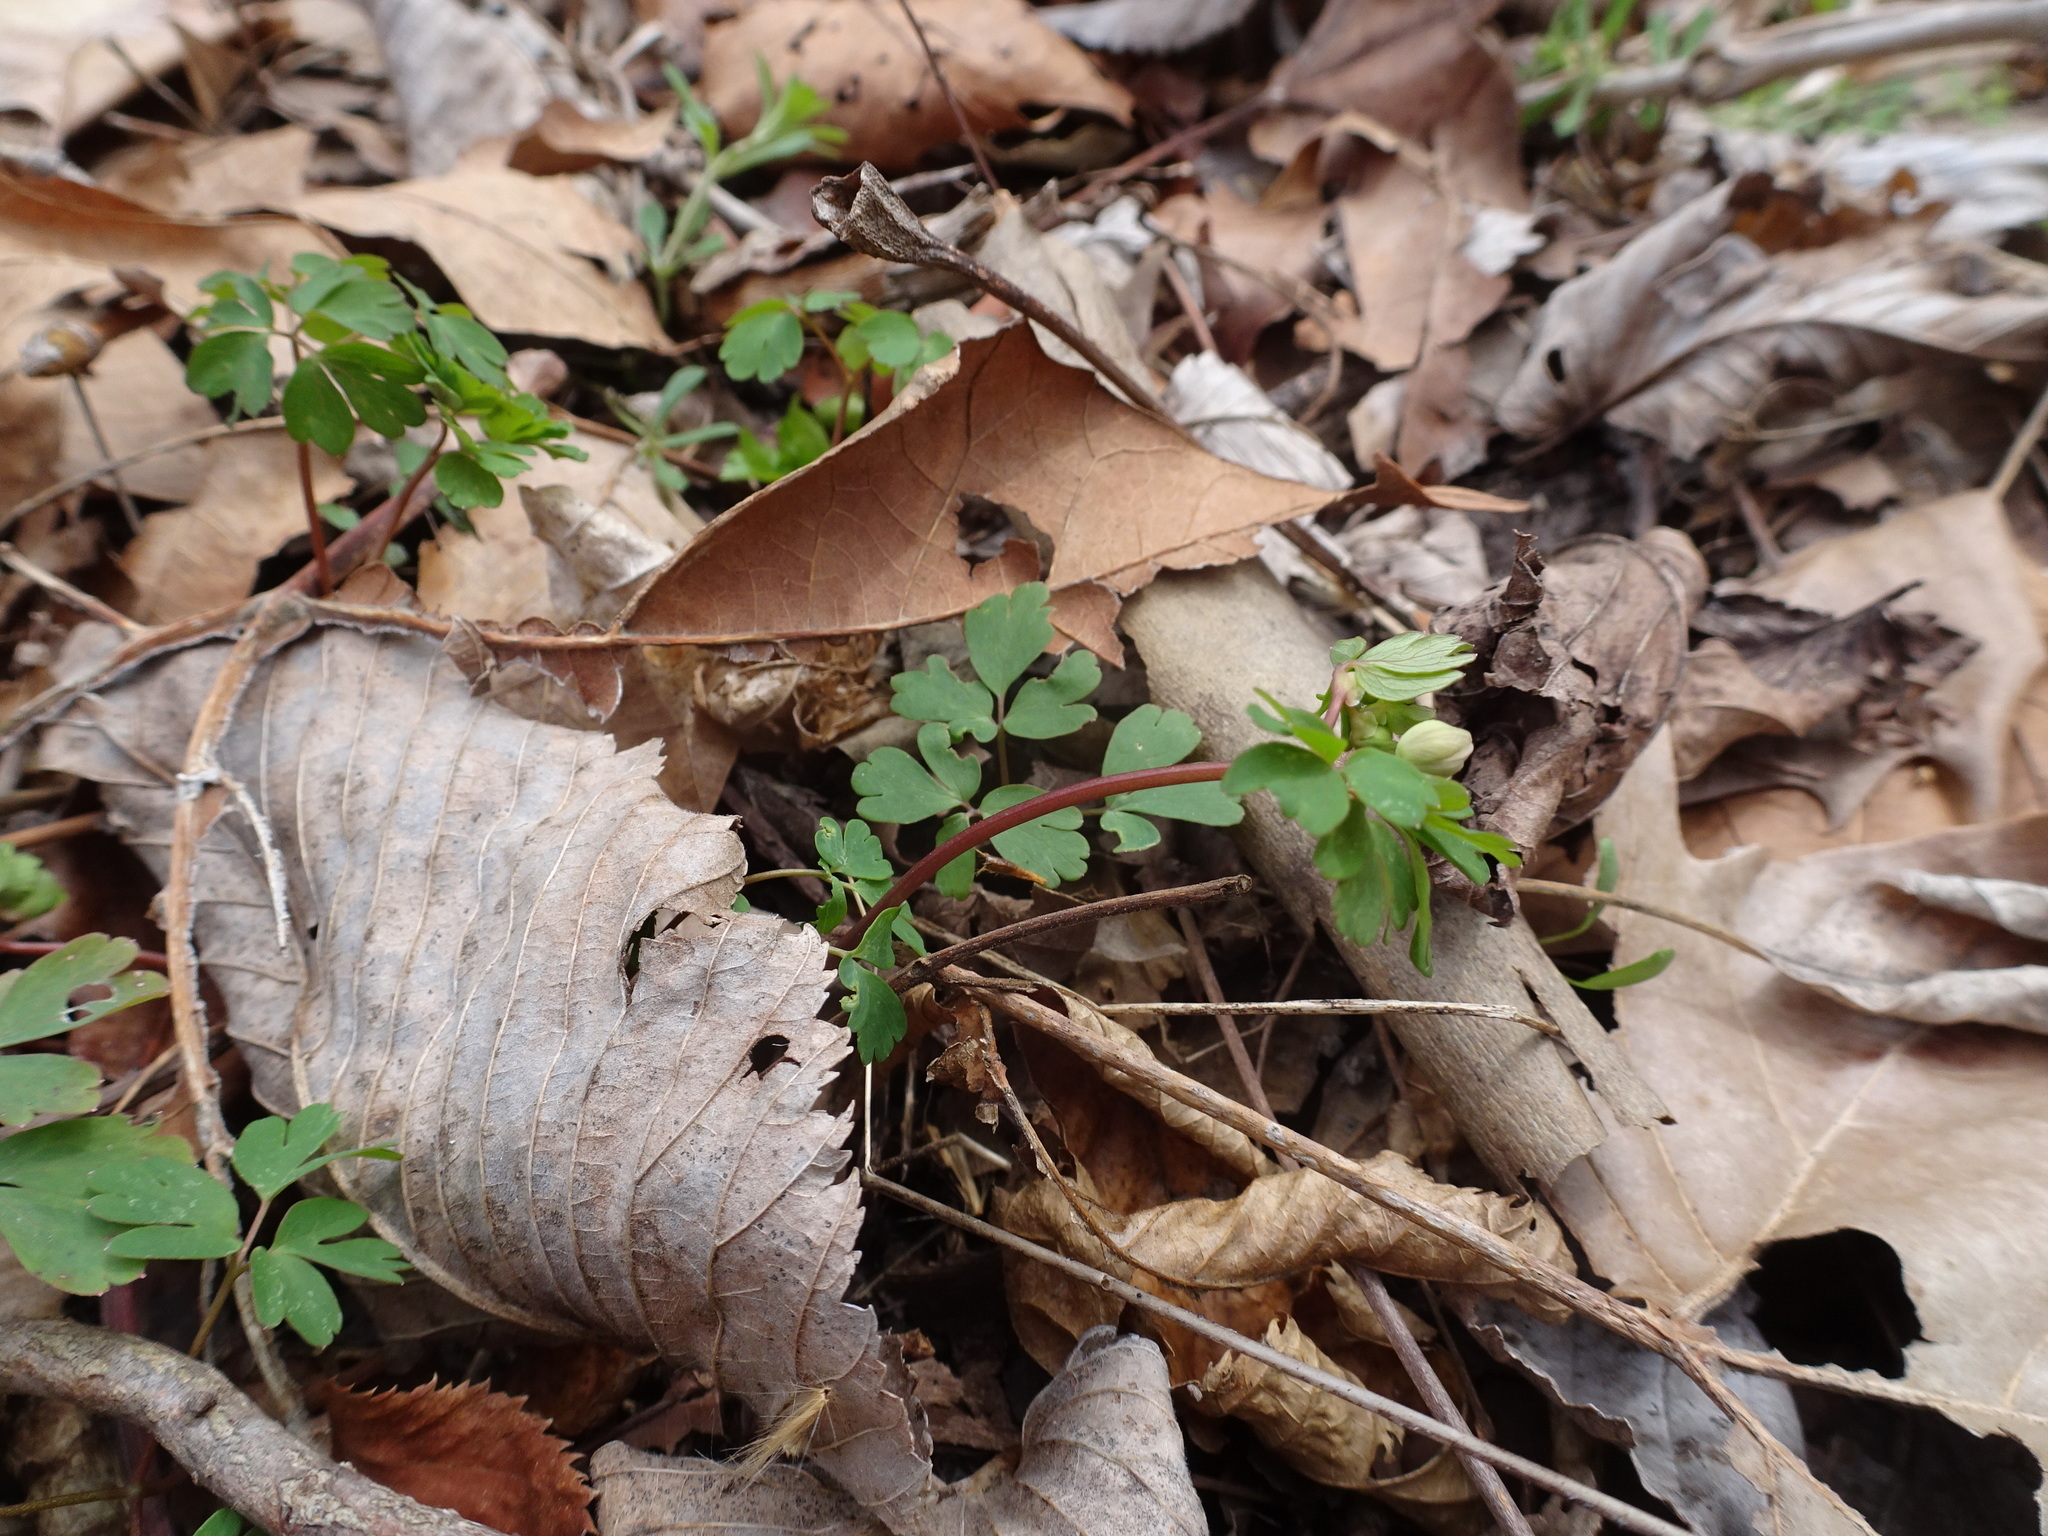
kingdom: Plantae
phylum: Tracheophyta
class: Magnoliopsida
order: Ranunculales
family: Ranunculaceae
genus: Enemion
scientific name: Enemion biternatum
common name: Eastern false rue-anemone
